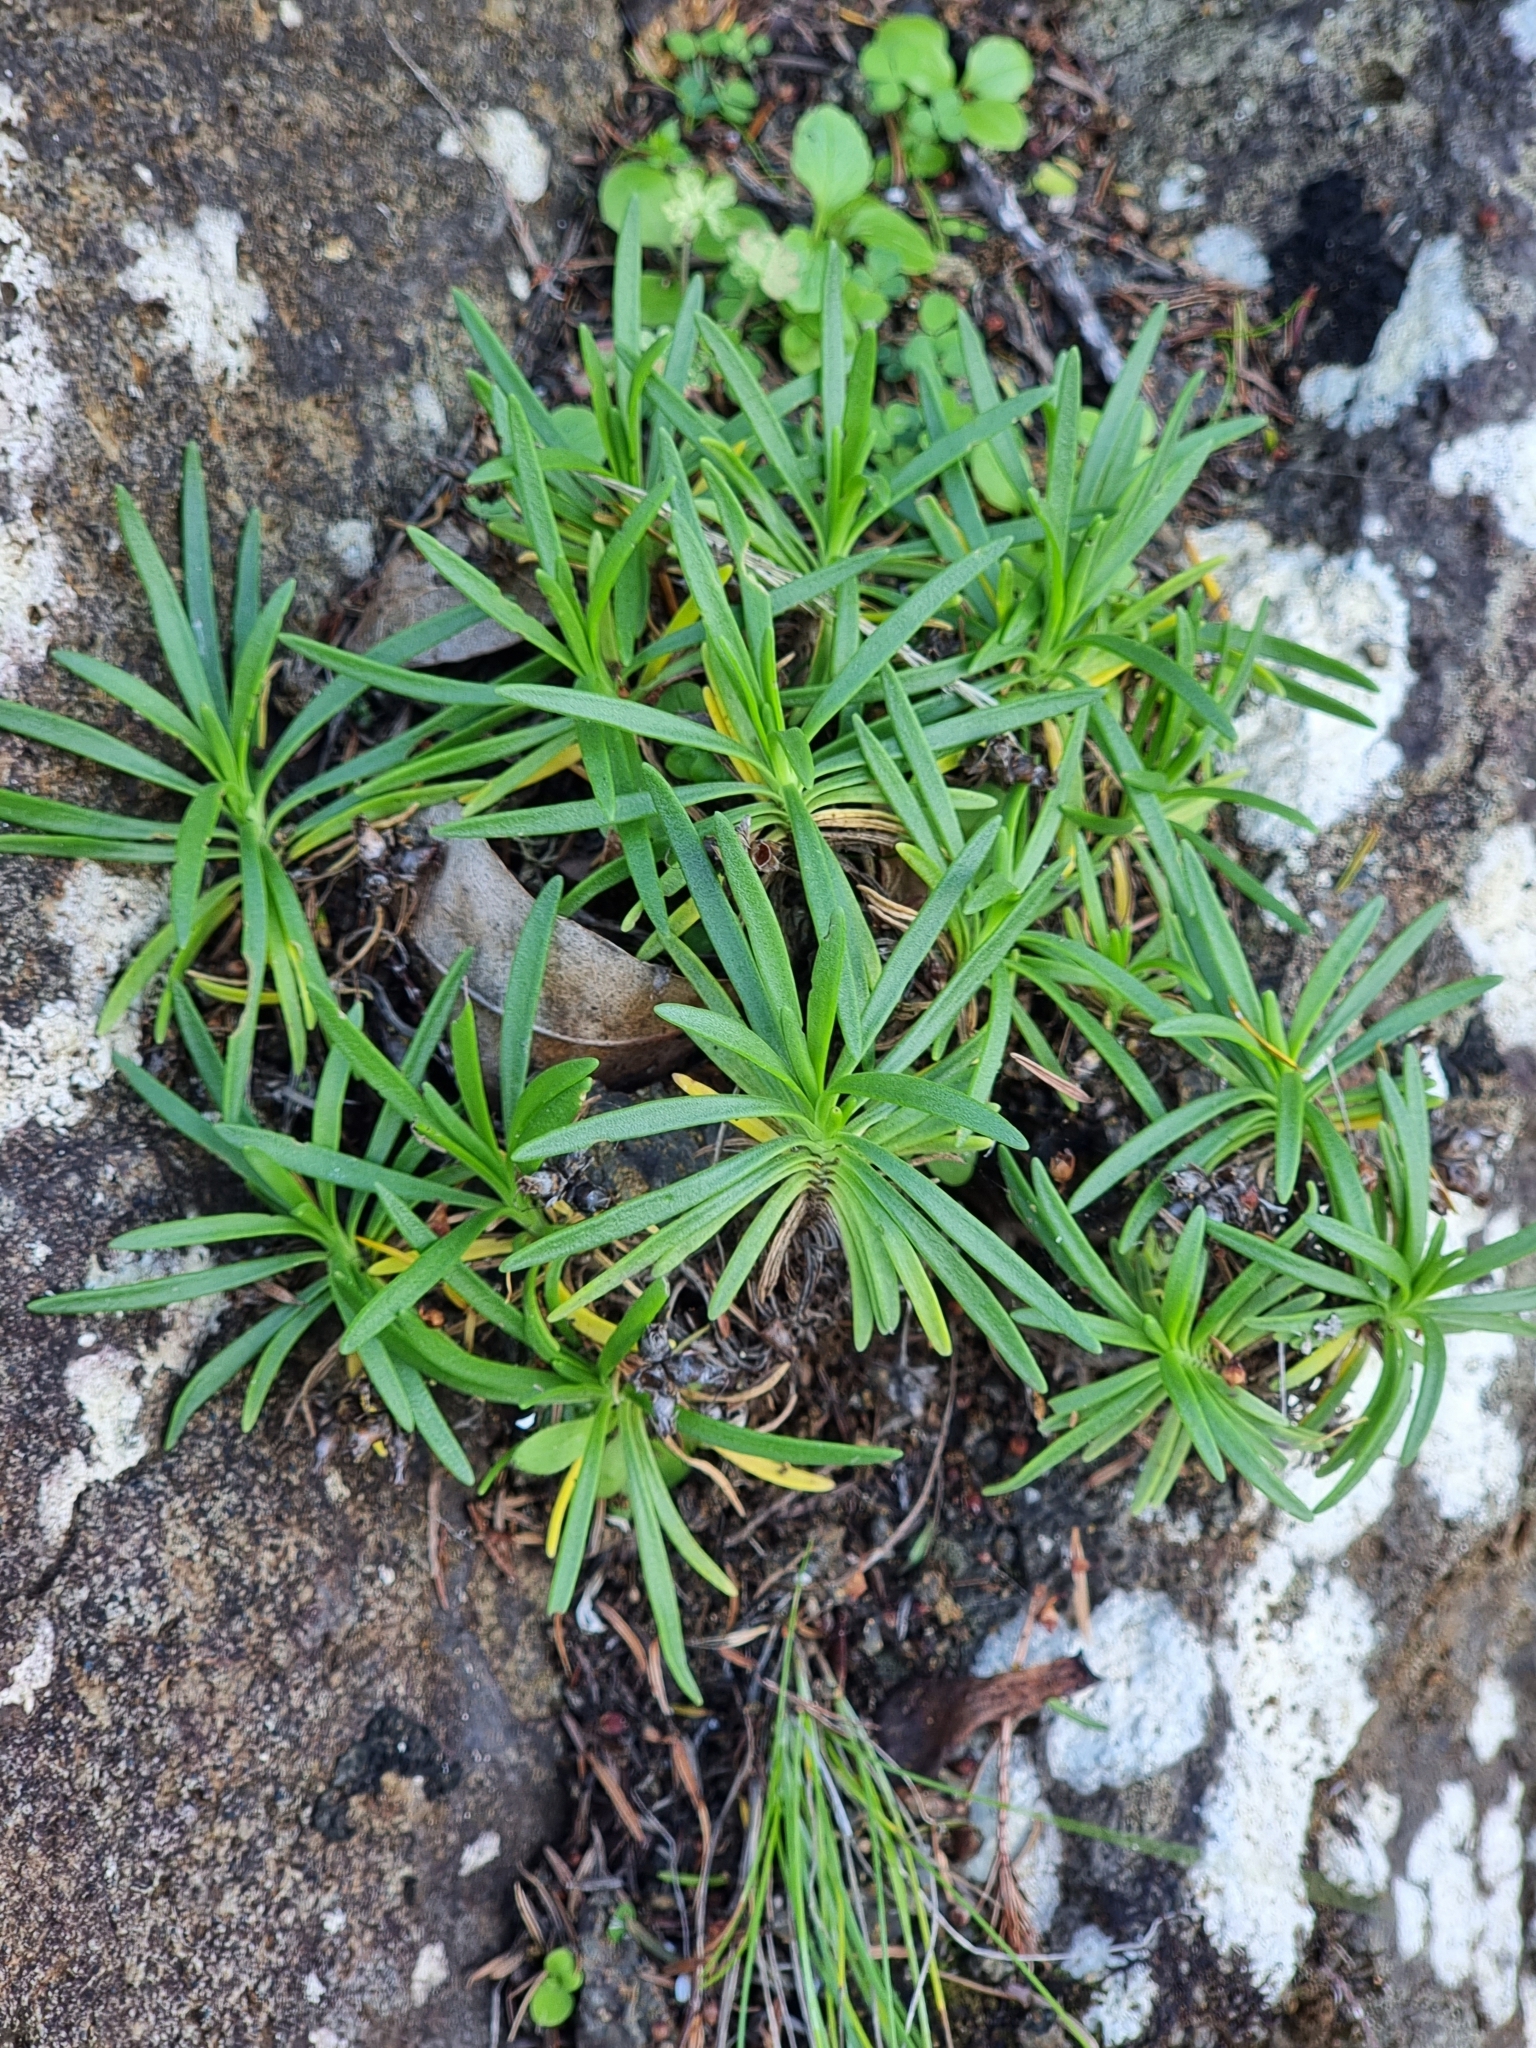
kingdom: Plantae
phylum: Tracheophyta
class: Magnoliopsida
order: Lamiales
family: Plantaginaceae
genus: Plantago
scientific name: Plantago arborescens
